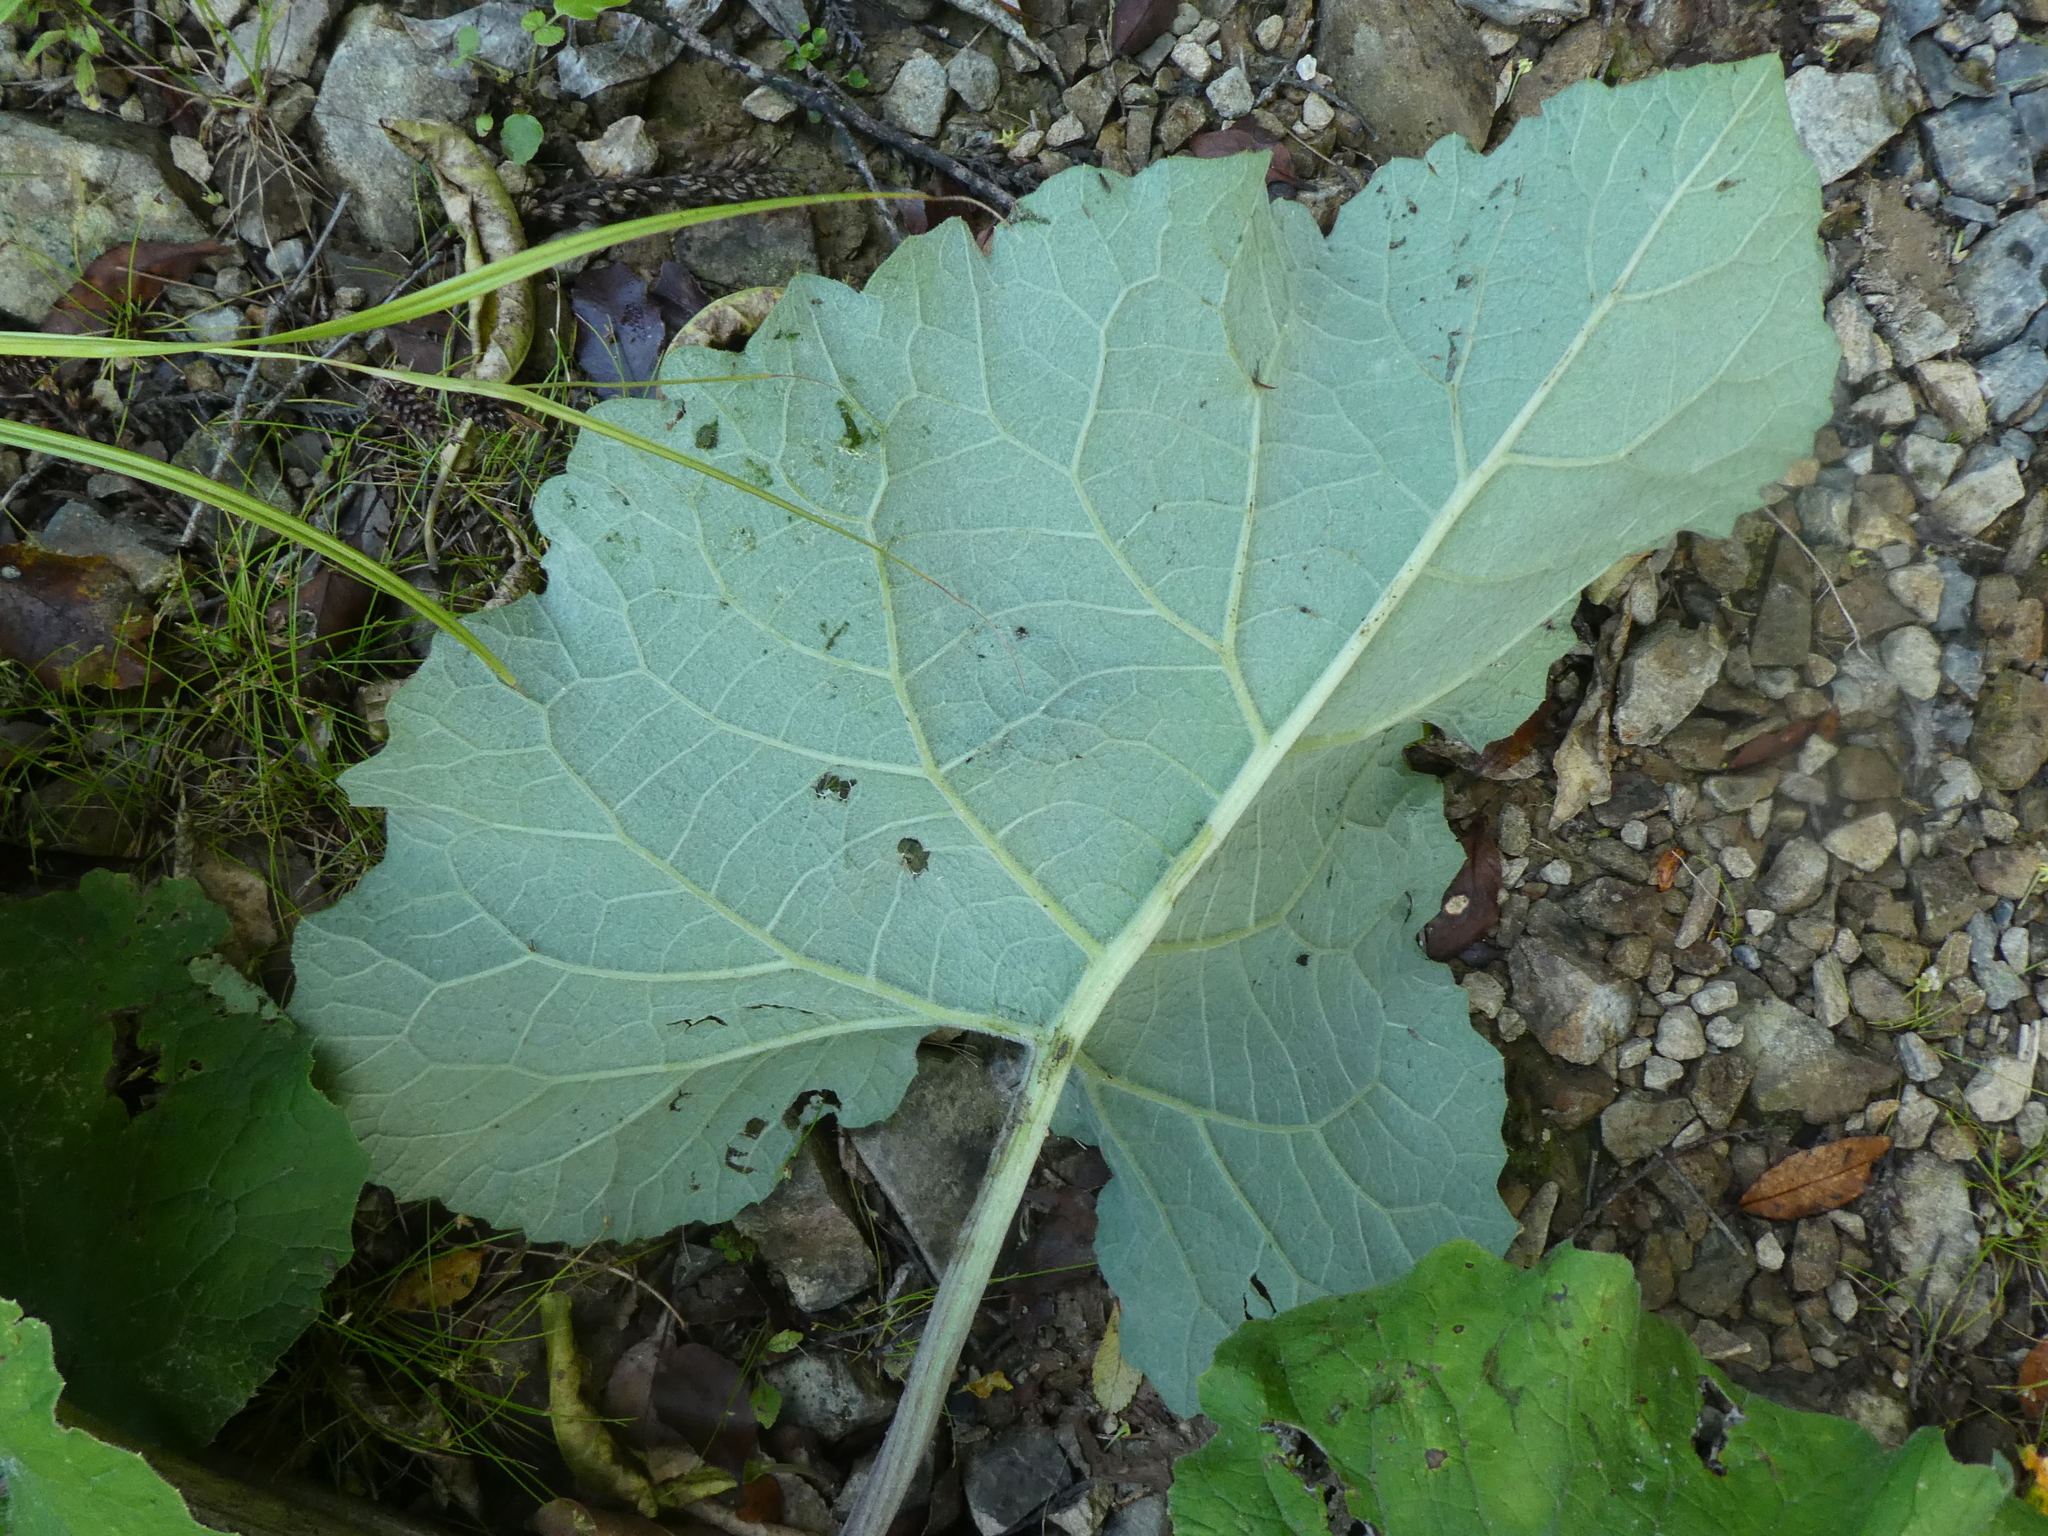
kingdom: Plantae
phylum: Tracheophyta
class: Magnoliopsida
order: Asterales
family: Asteraceae
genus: Arctium
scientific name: Arctium minus
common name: Lesser burdock
